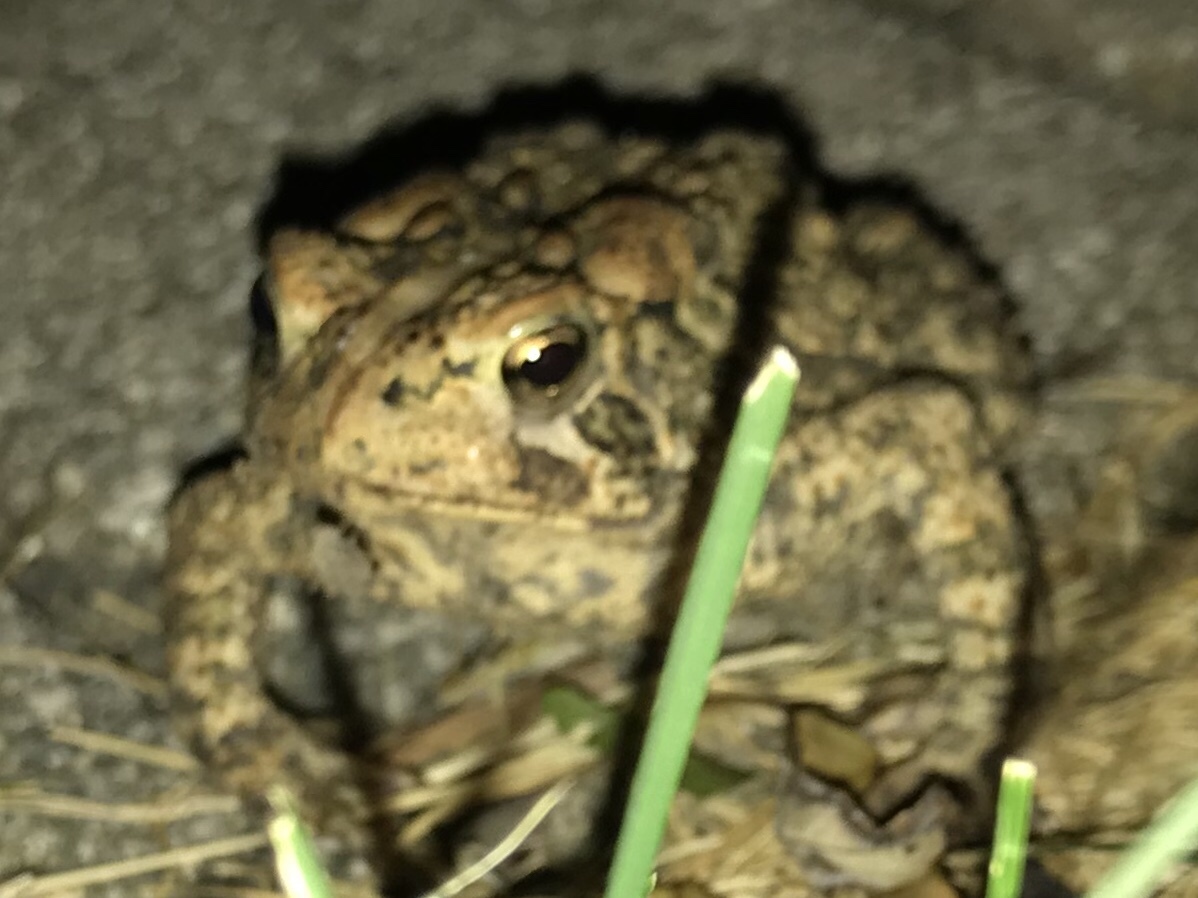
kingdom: Animalia
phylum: Chordata
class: Amphibia
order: Anura
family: Bufonidae
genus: Anaxyrus
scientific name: Anaxyrus americanus
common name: American toad
